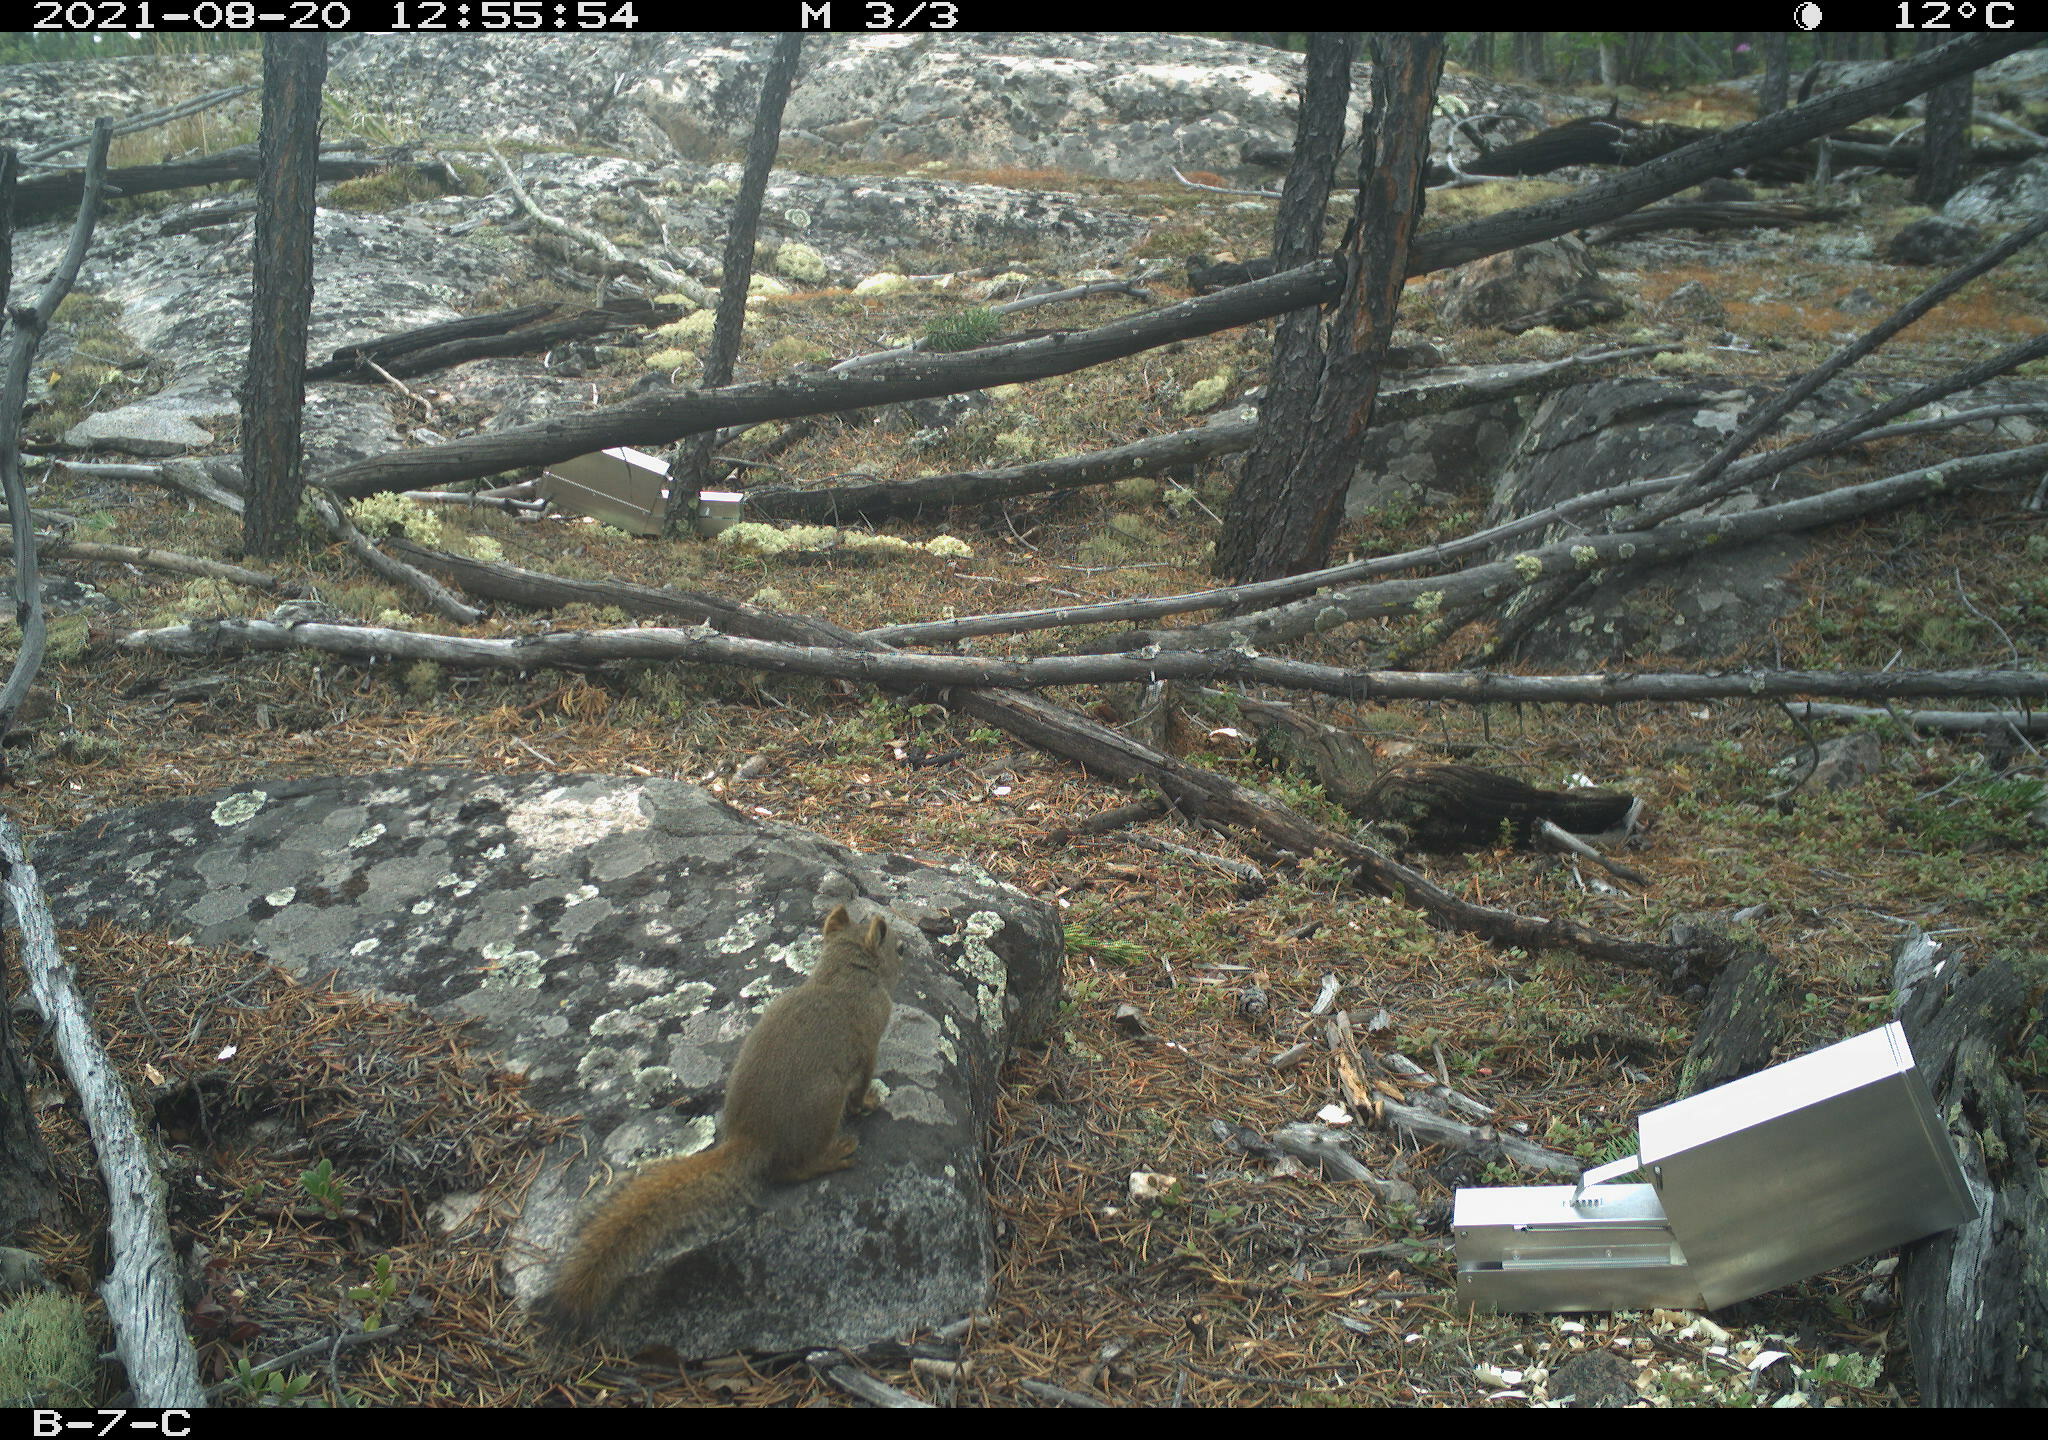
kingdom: Animalia
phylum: Chordata
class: Mammalia
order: Rodentia
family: Sciuridae
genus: Tamiasciurus
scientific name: Tamiasciurus hudsonicus
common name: Red squirrel
